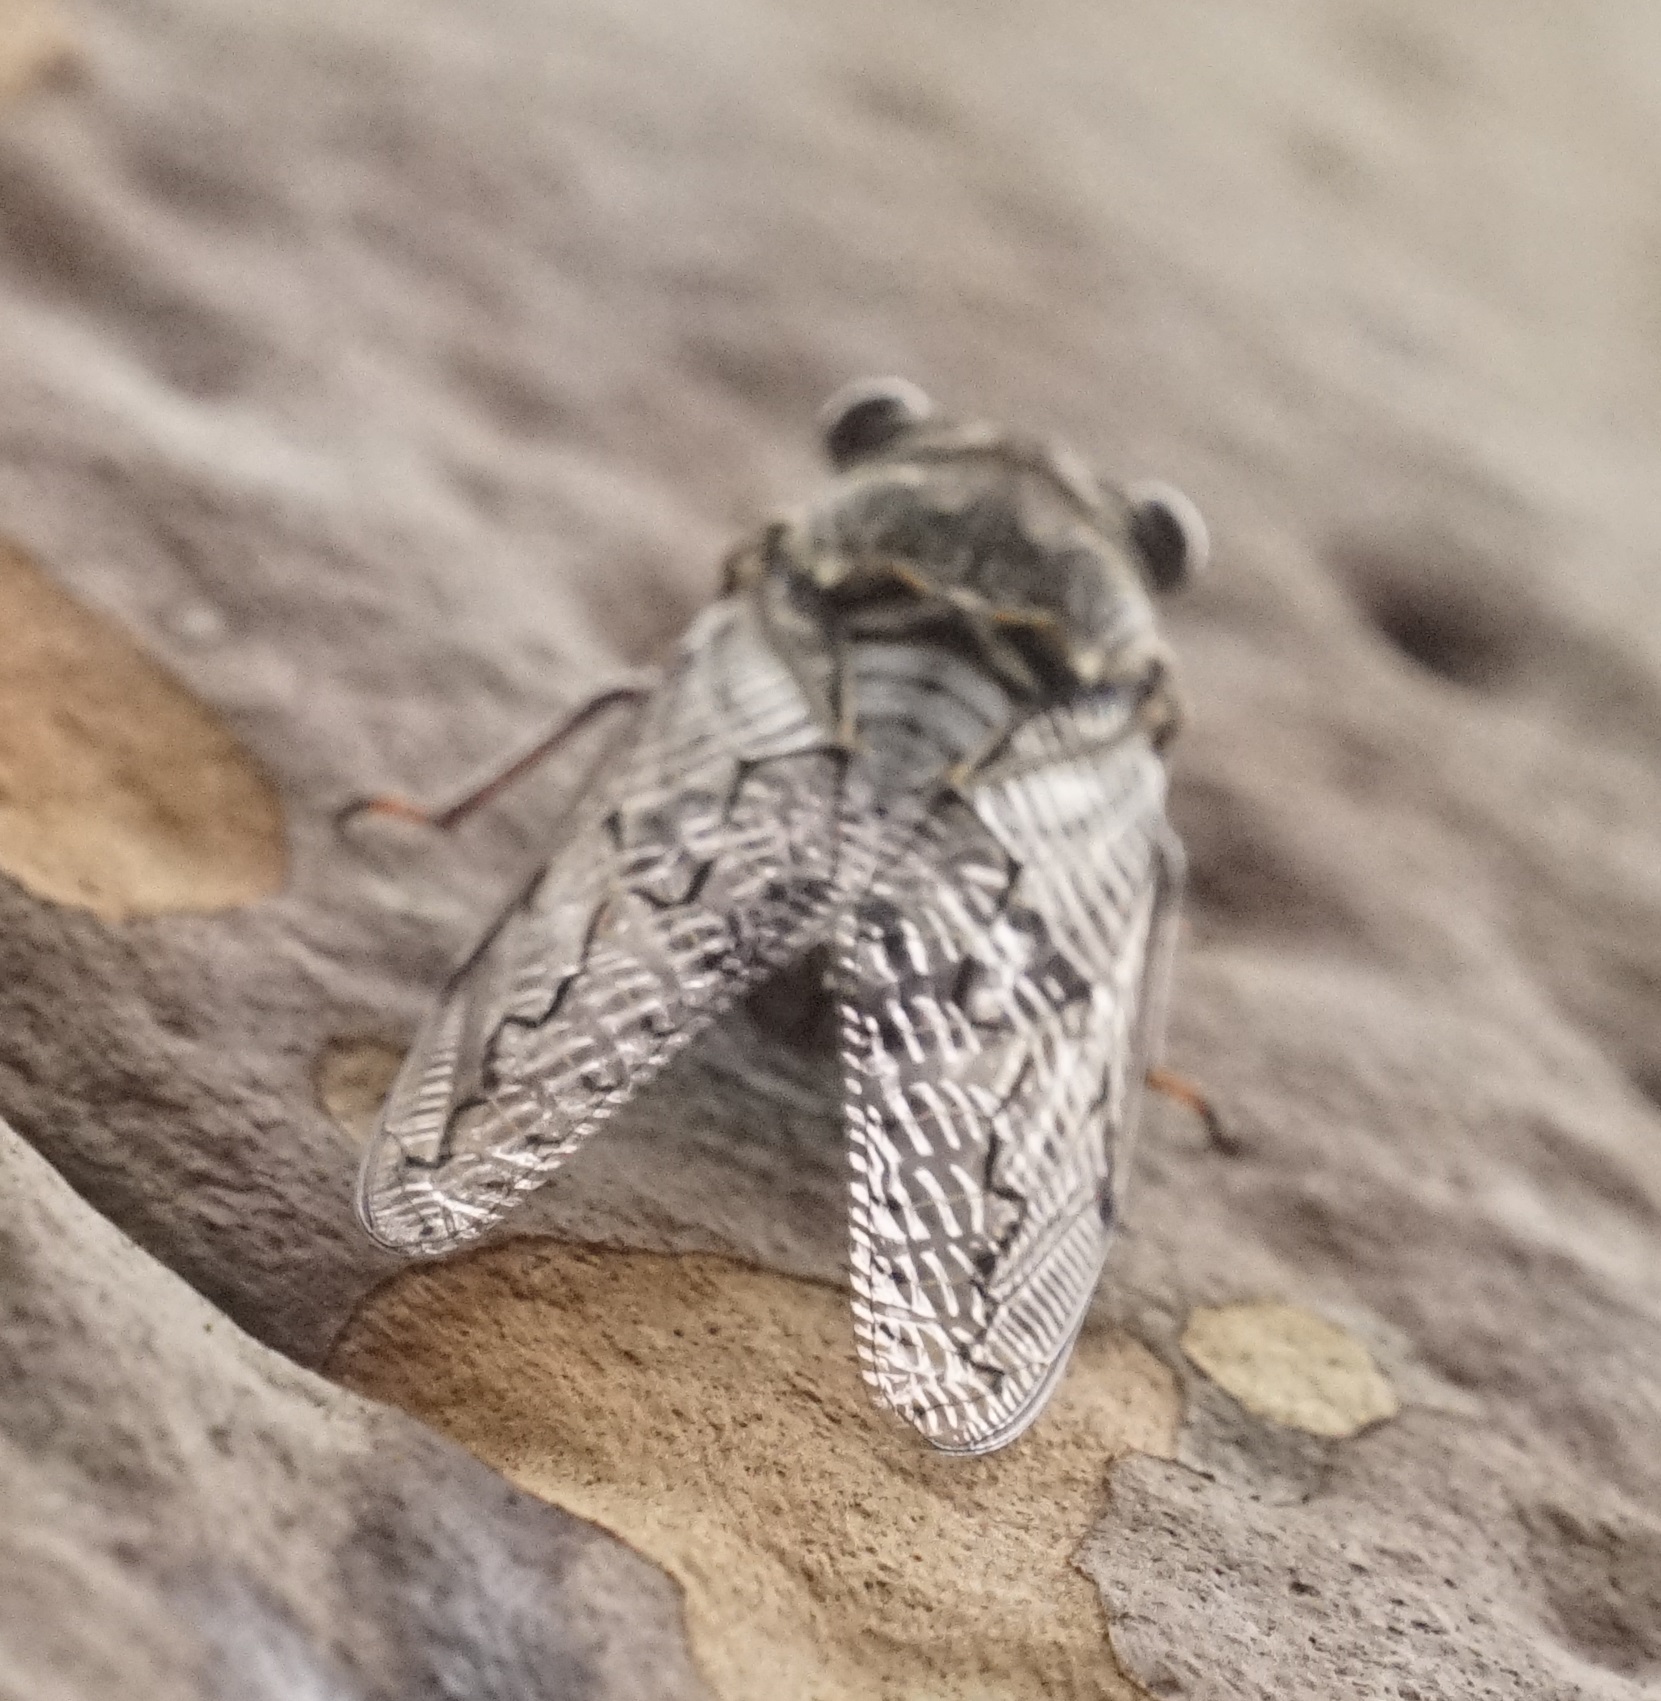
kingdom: Animalia
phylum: Arthropoda
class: Insecta
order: Hemiptera
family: Cicadidae
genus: Henicopsaltria
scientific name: Henicopsaltria eydouxii
